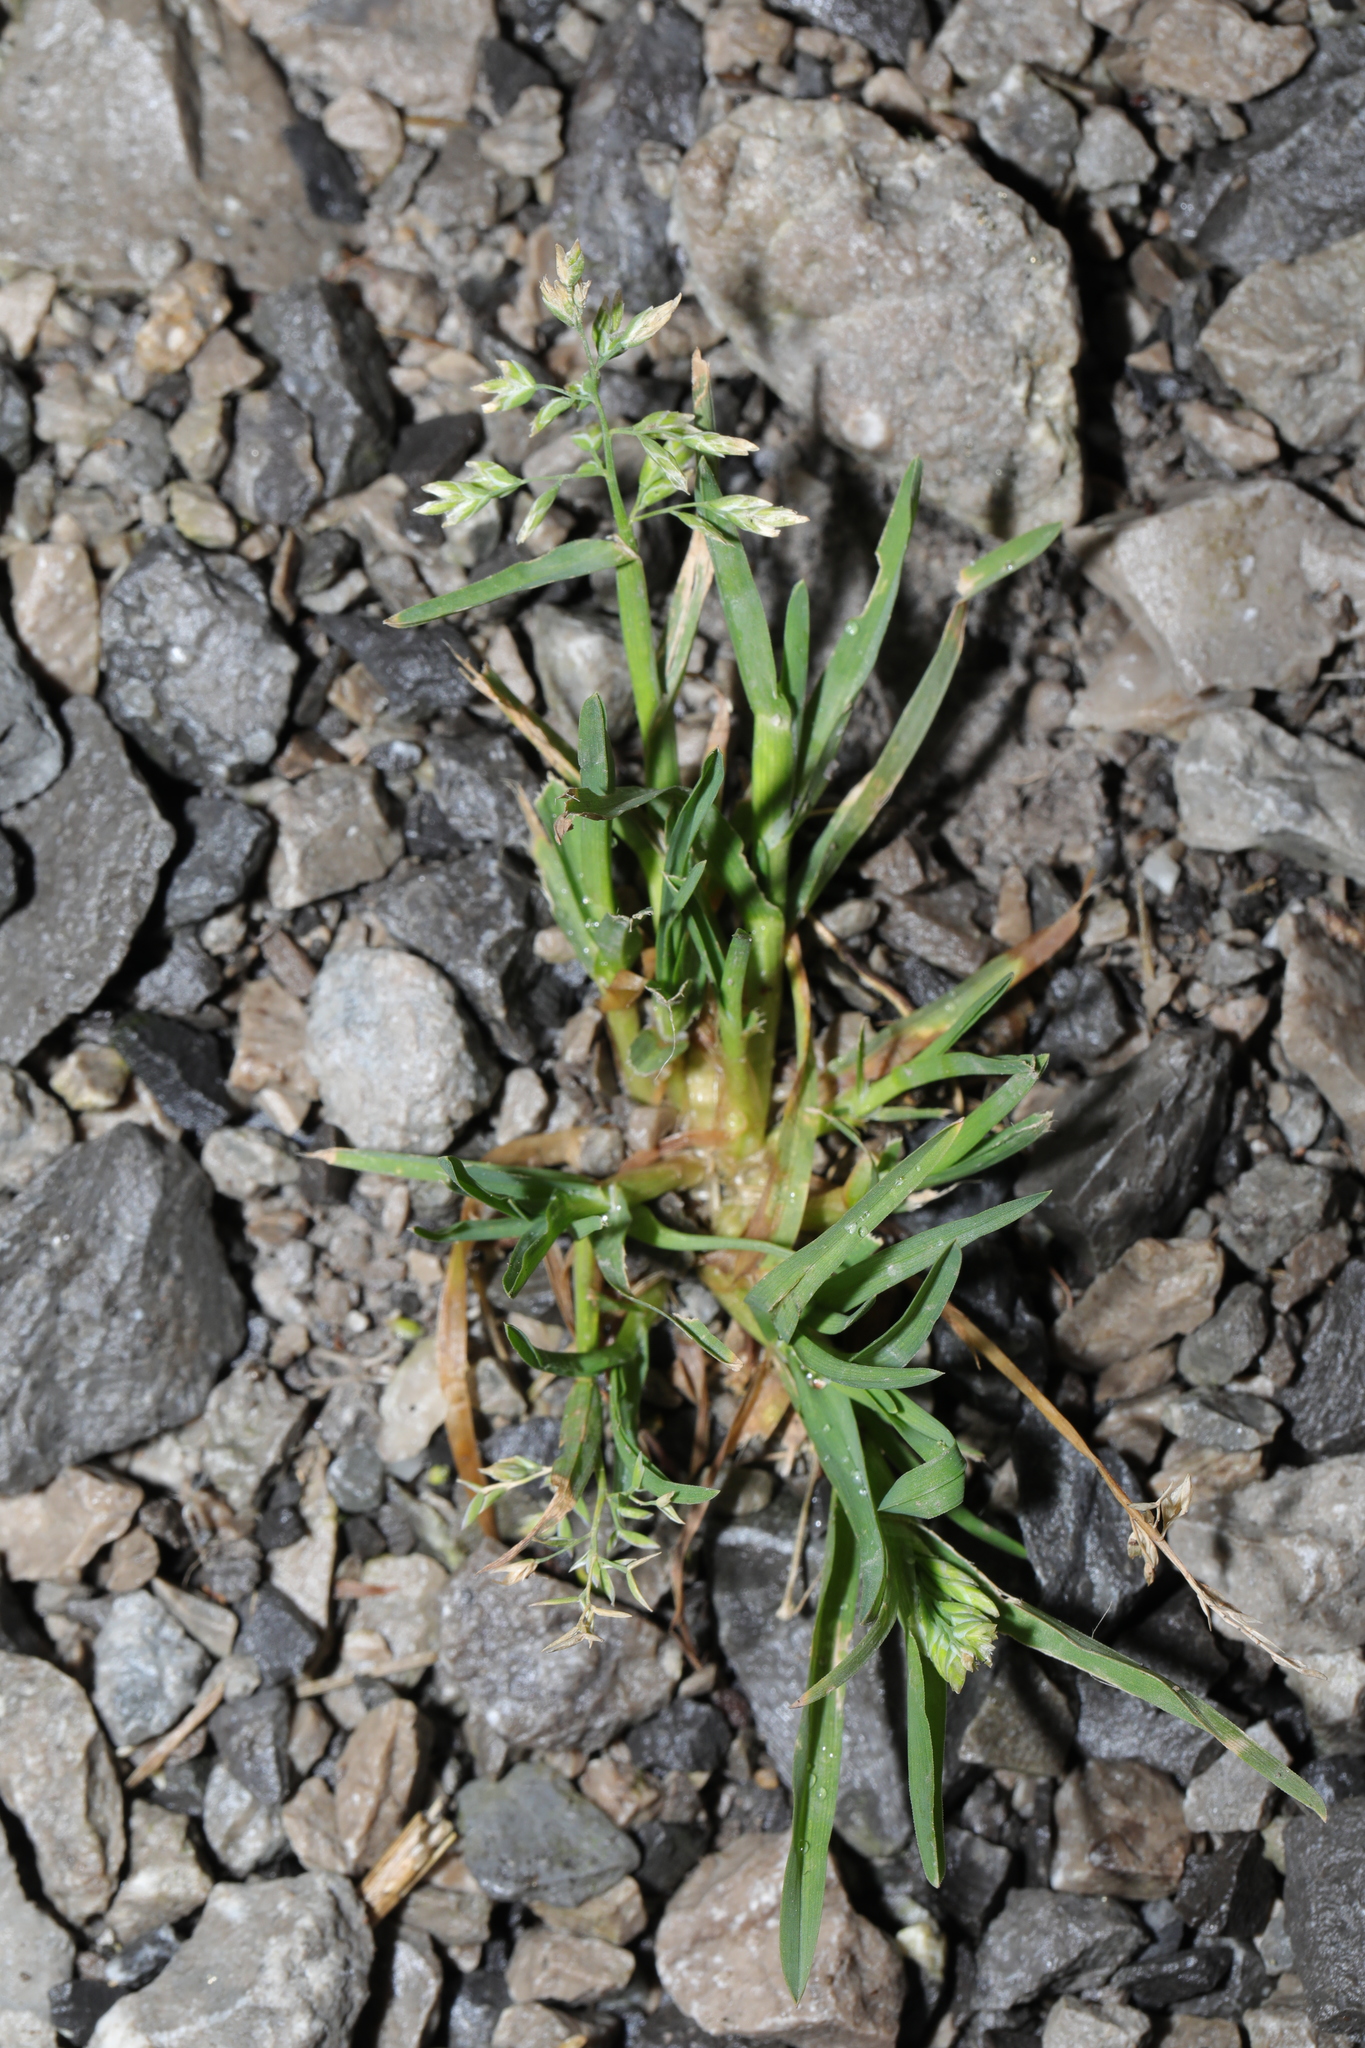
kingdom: Plantae
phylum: Tracheophyta
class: Liliopsida
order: Poales
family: Poaceae
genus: Poa
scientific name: Poa annua
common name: Annual bluegrass
